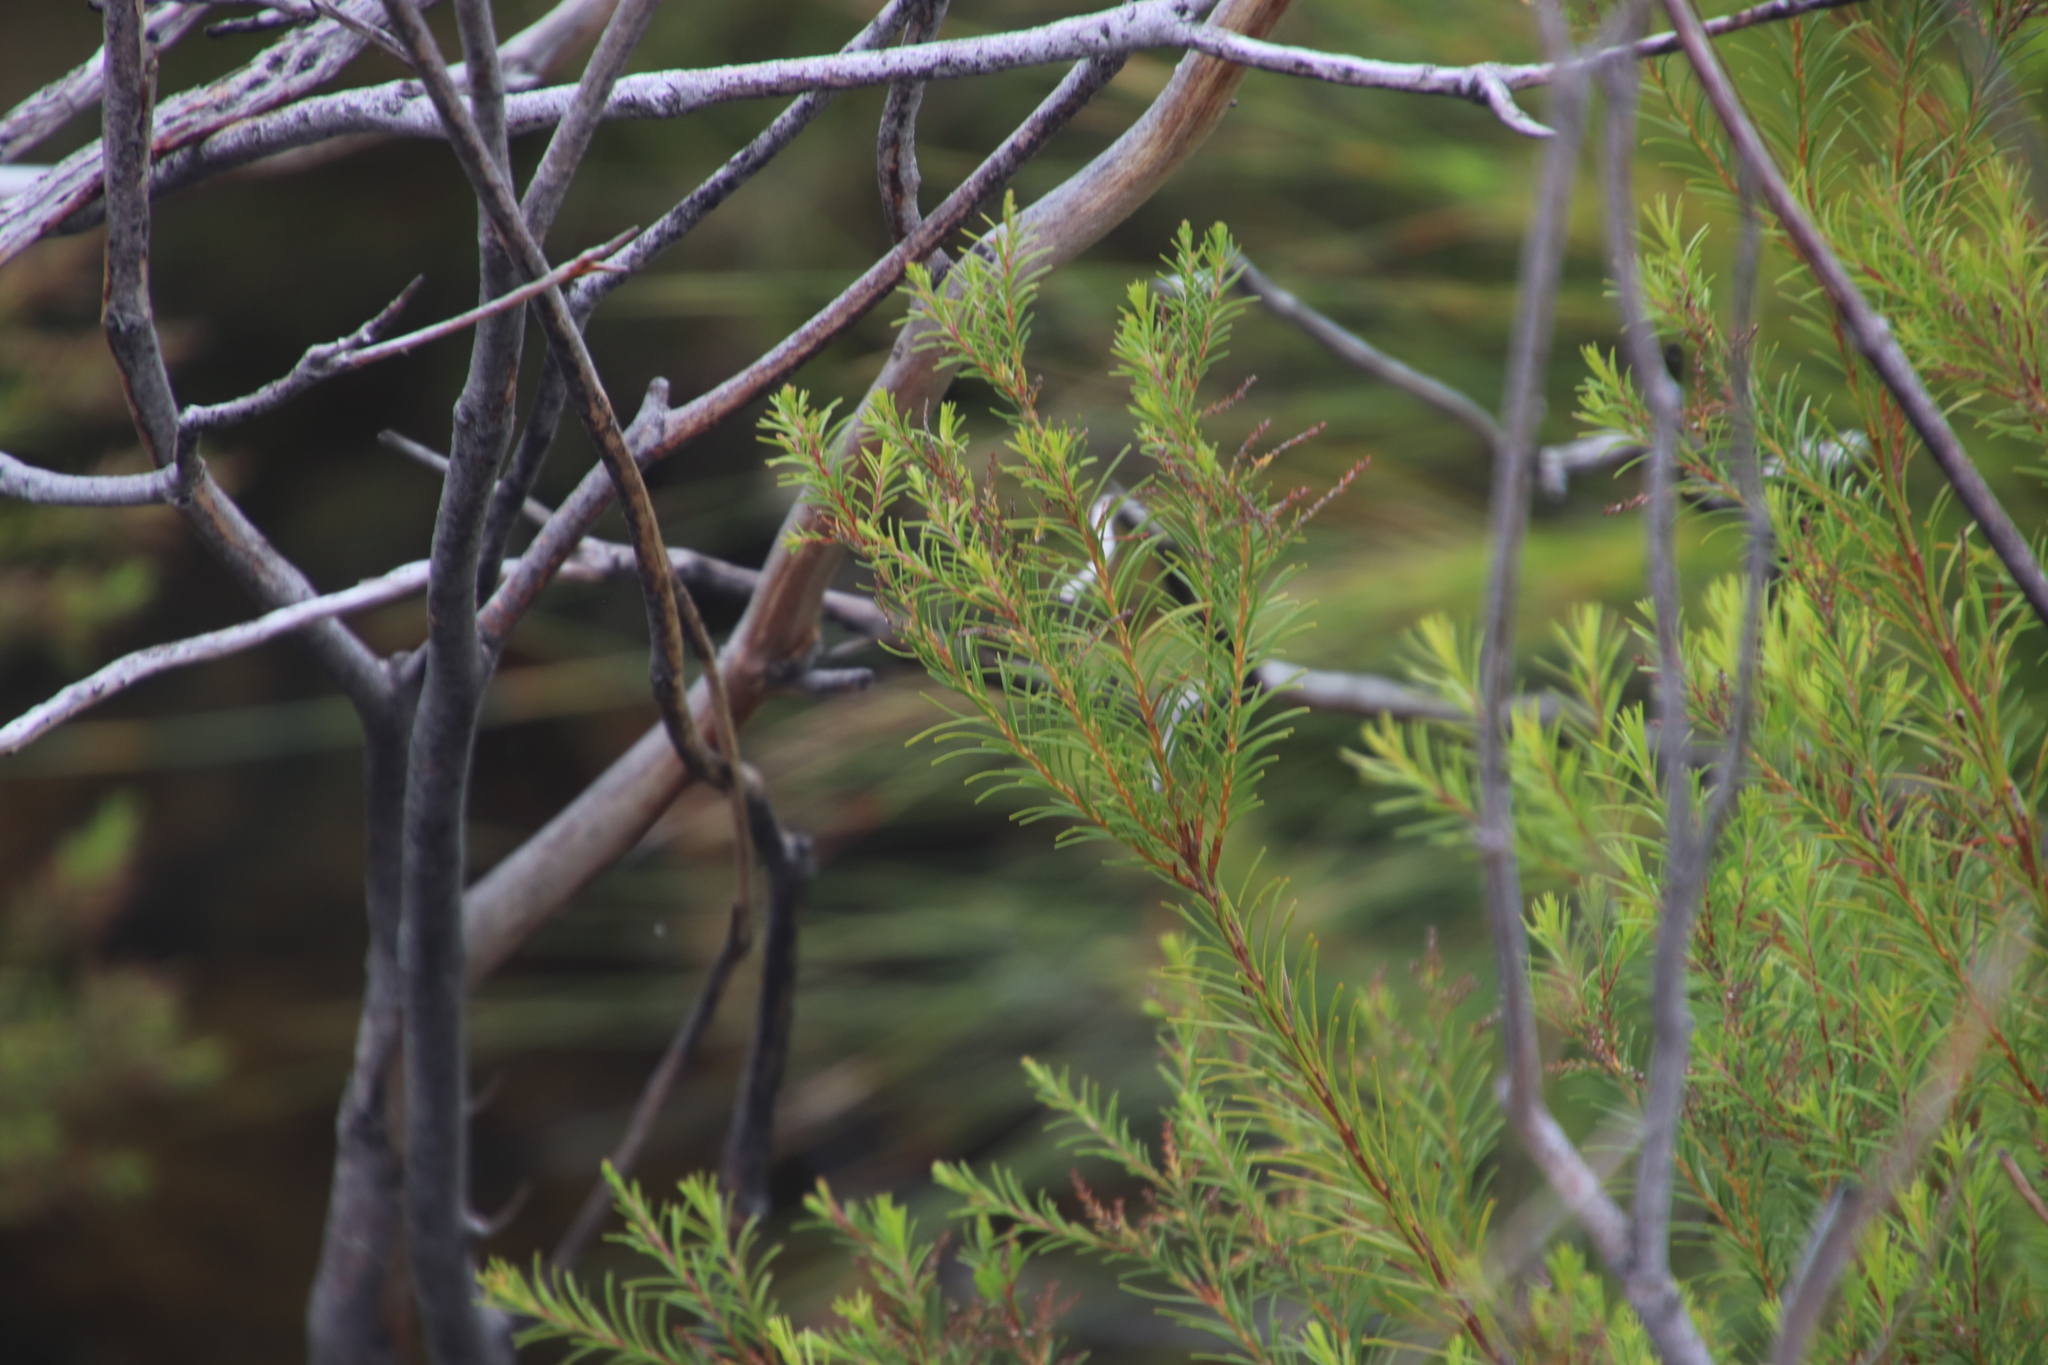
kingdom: Plantae
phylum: Tracheophyta
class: Magnoliopsida
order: Bruniales
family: Bruniaceae
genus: Brunia
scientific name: Brunia africana
